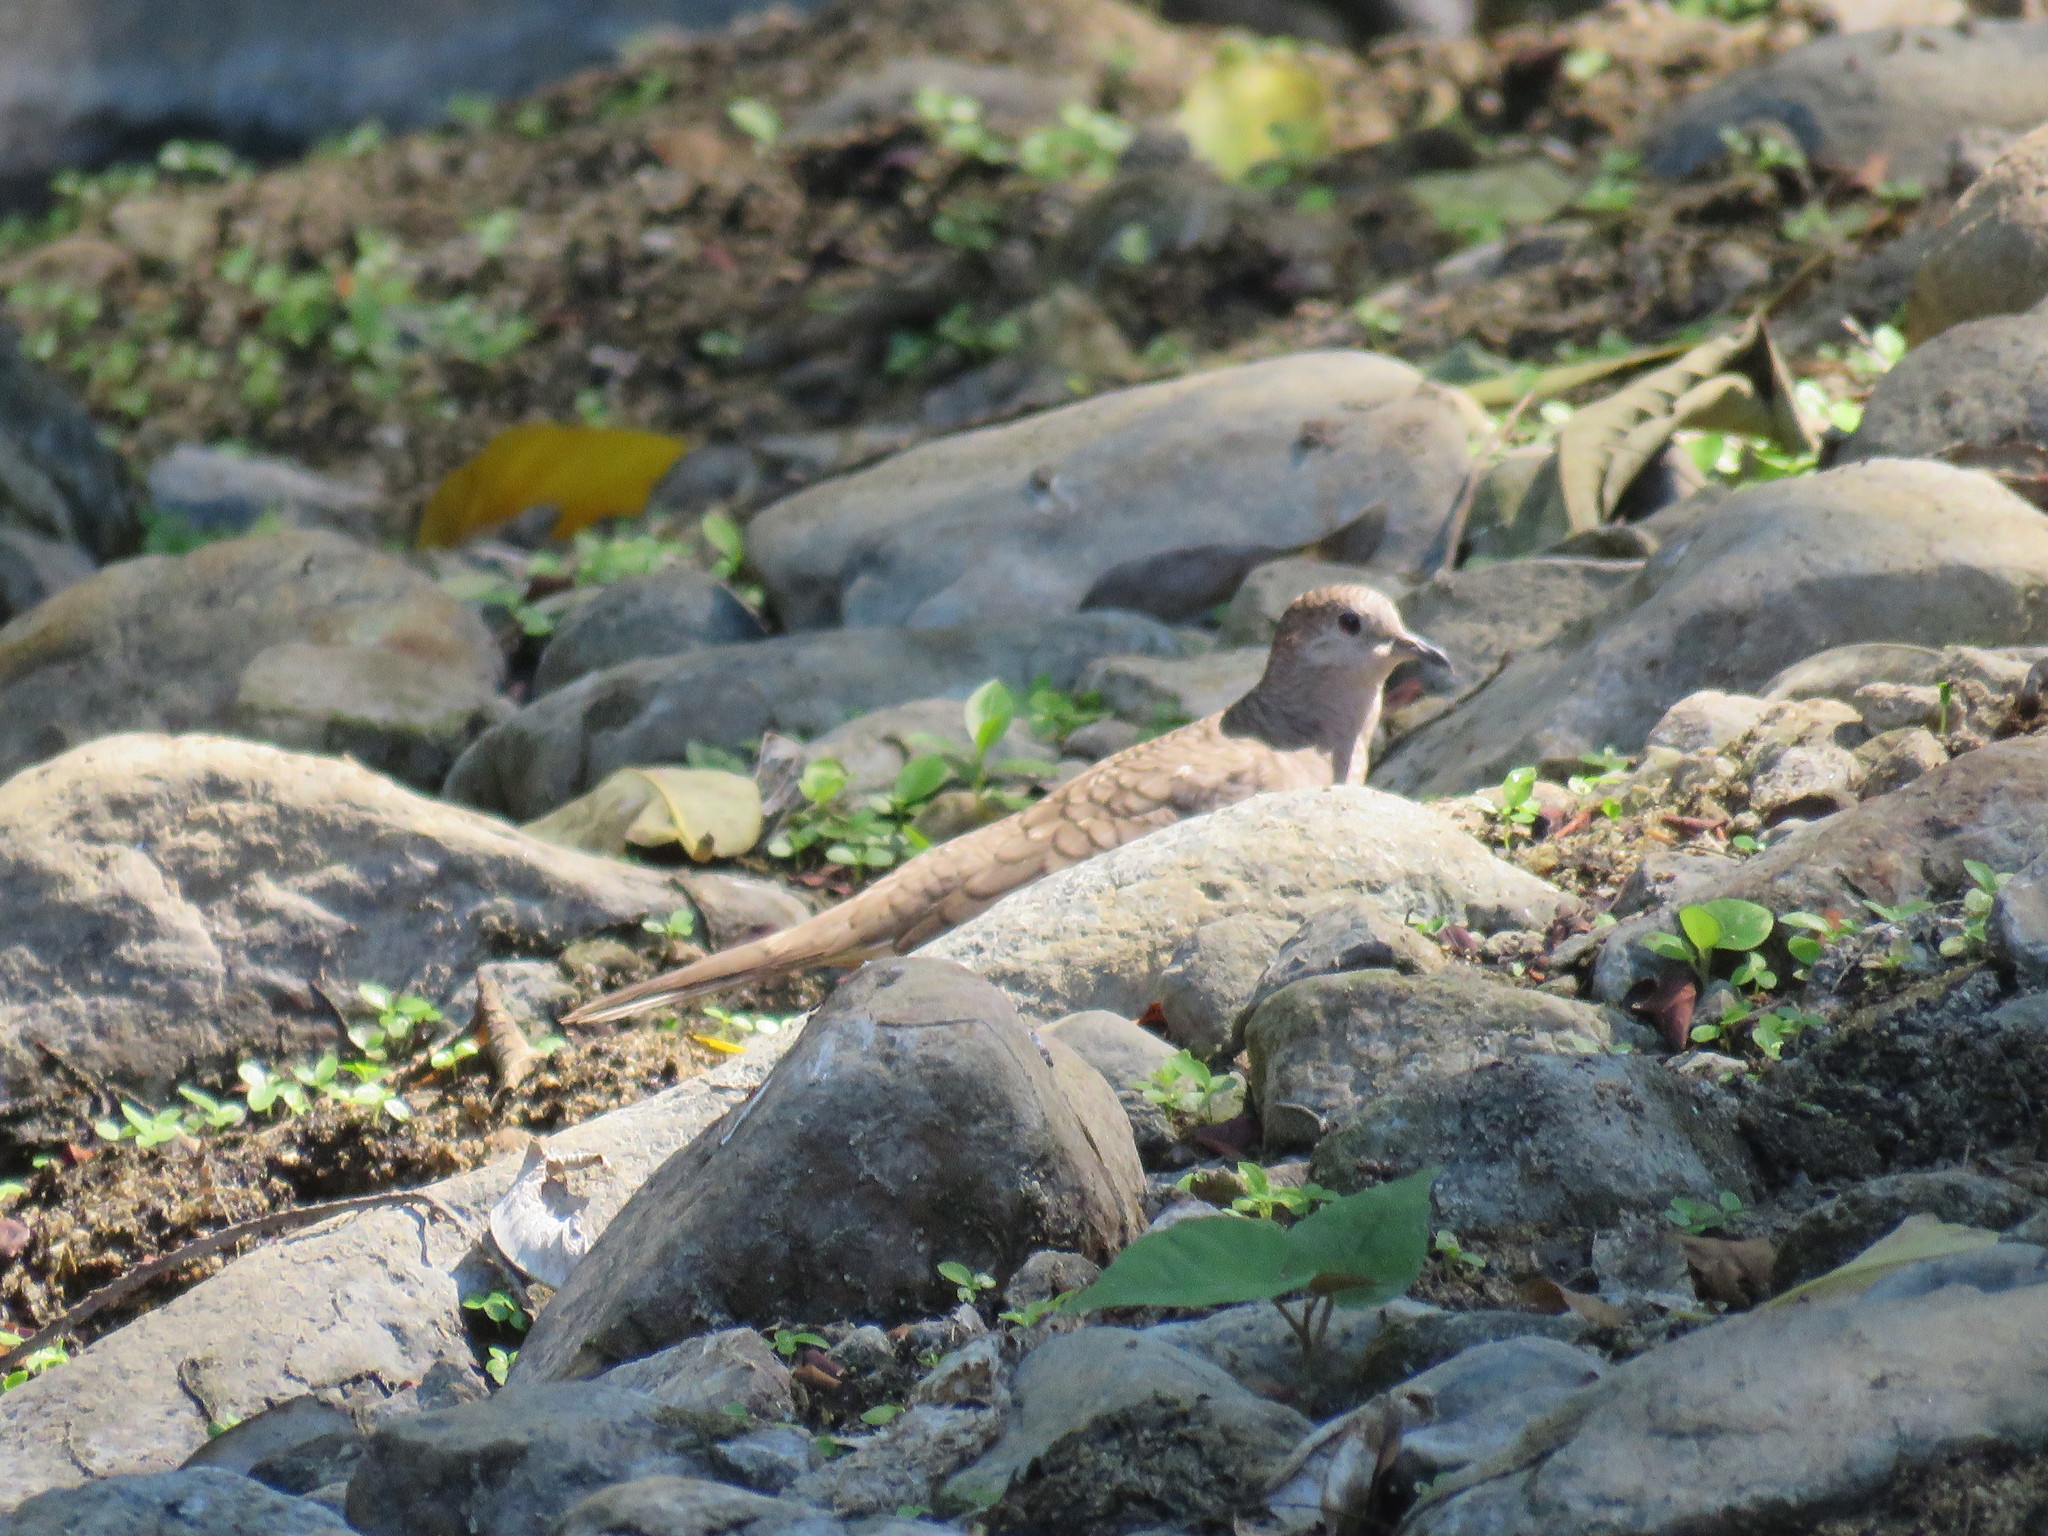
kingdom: Animalia
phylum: Chordata
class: Aves
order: Columbiformes
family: Columbidae
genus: Columbina
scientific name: Columbina inca
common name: Inca dove
